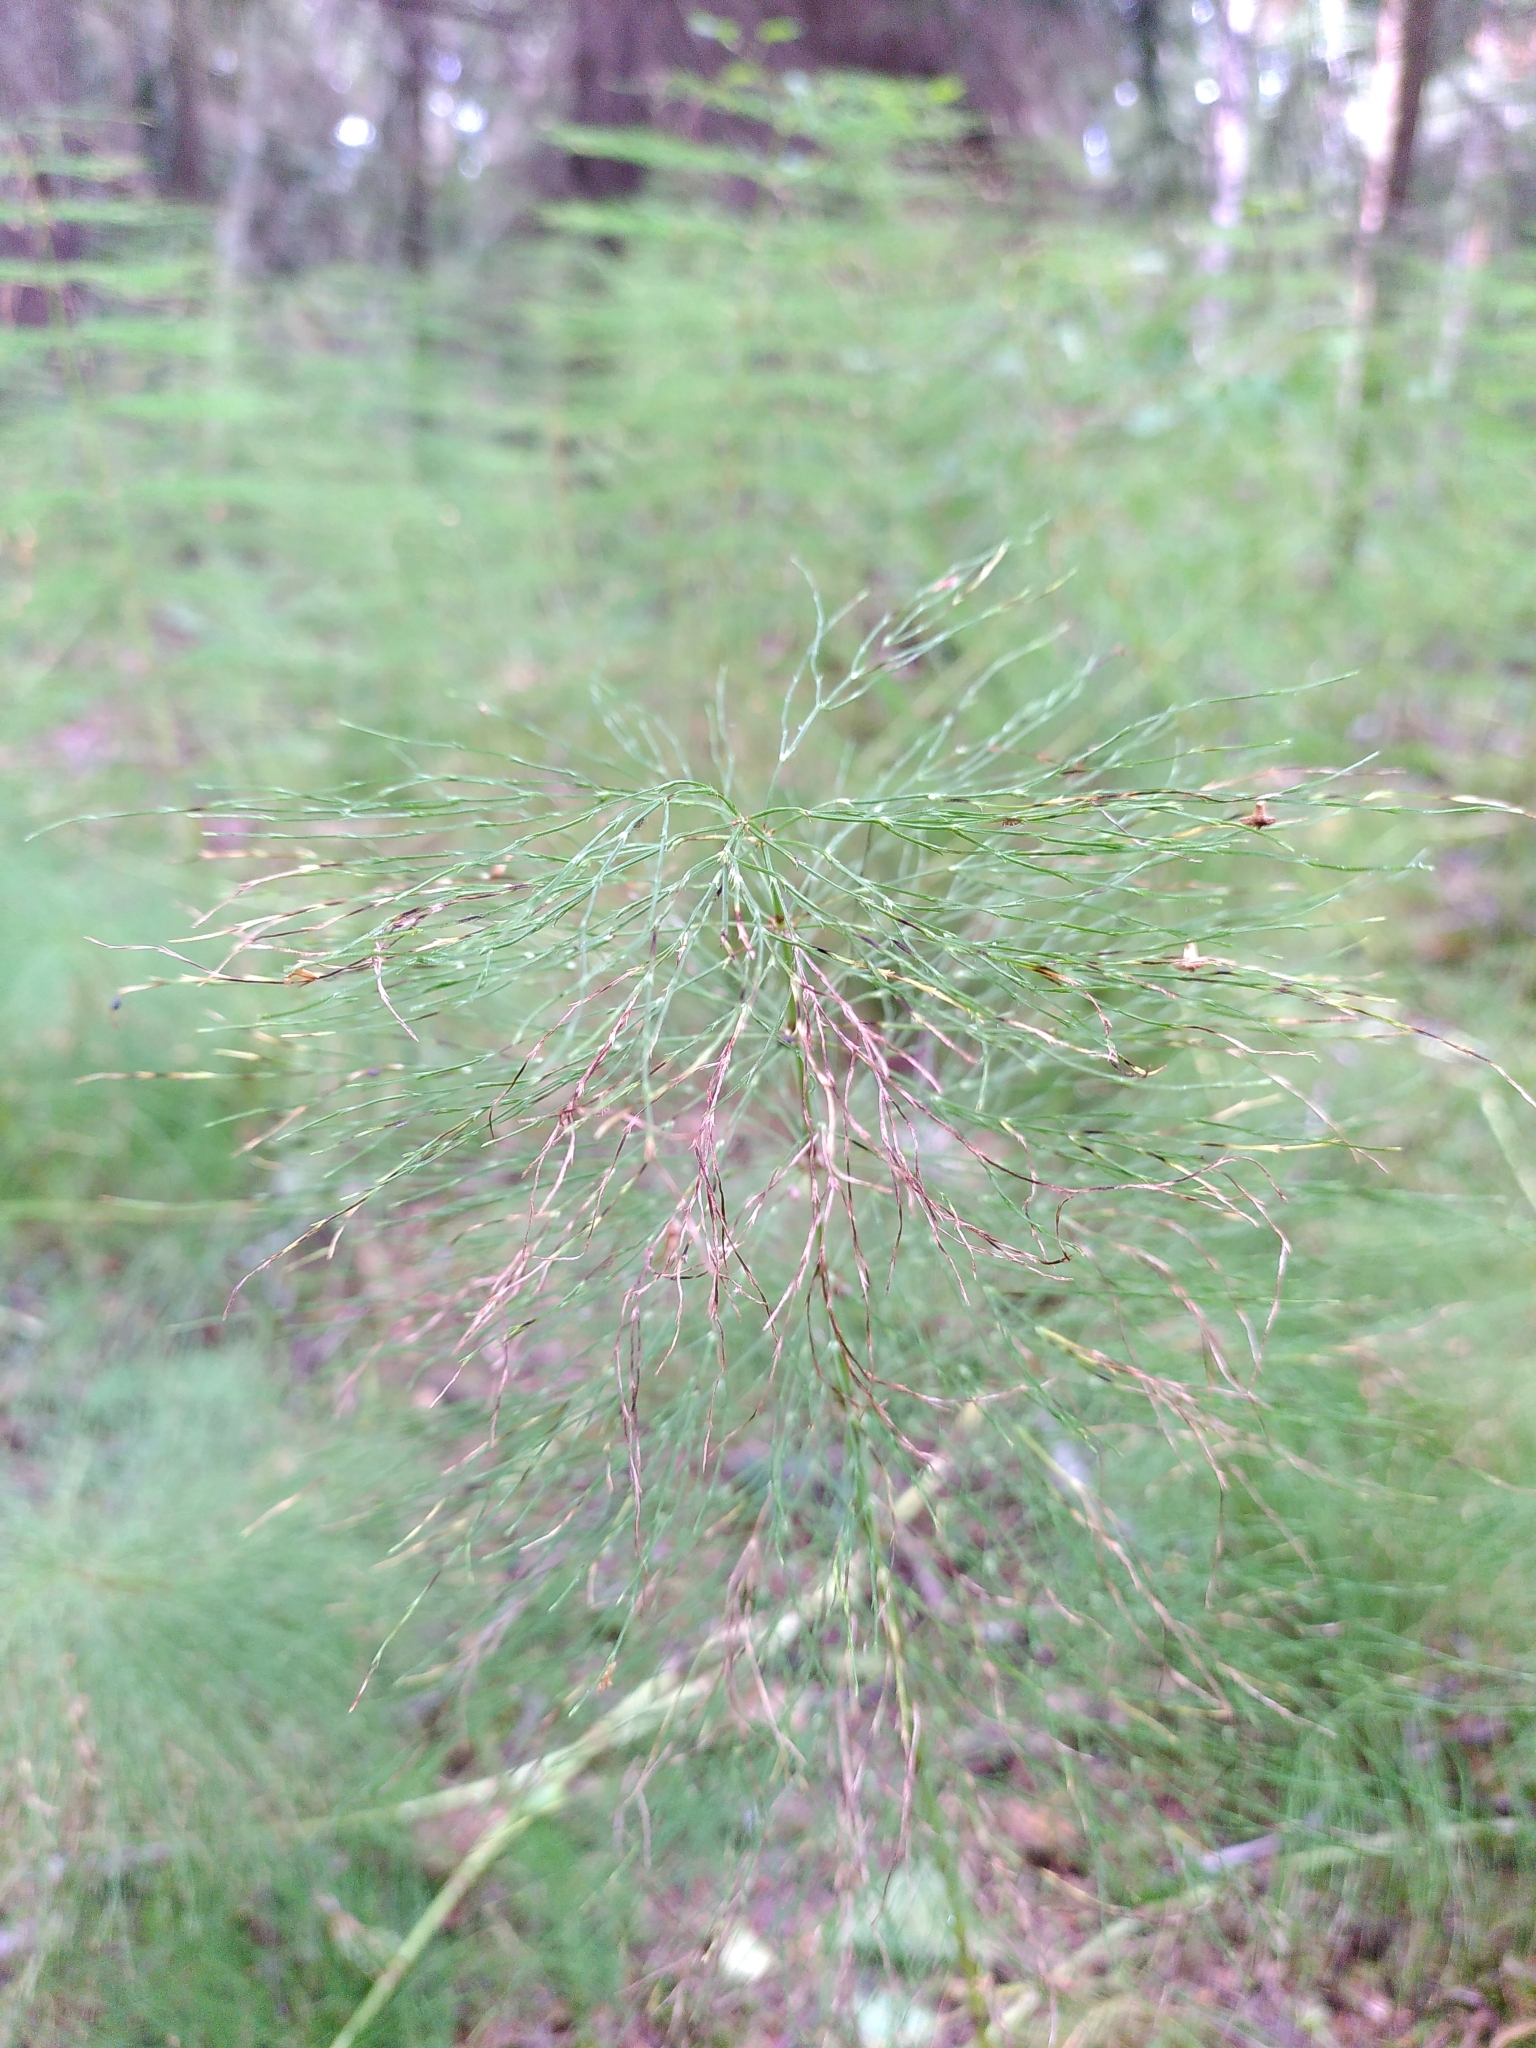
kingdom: Plantae
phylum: Tracheophyta
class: Polypodiopsida
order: Equisetales
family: Equisetaceae
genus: Equisetum
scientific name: Equisetum sylvaticum
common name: Wood horsetail
